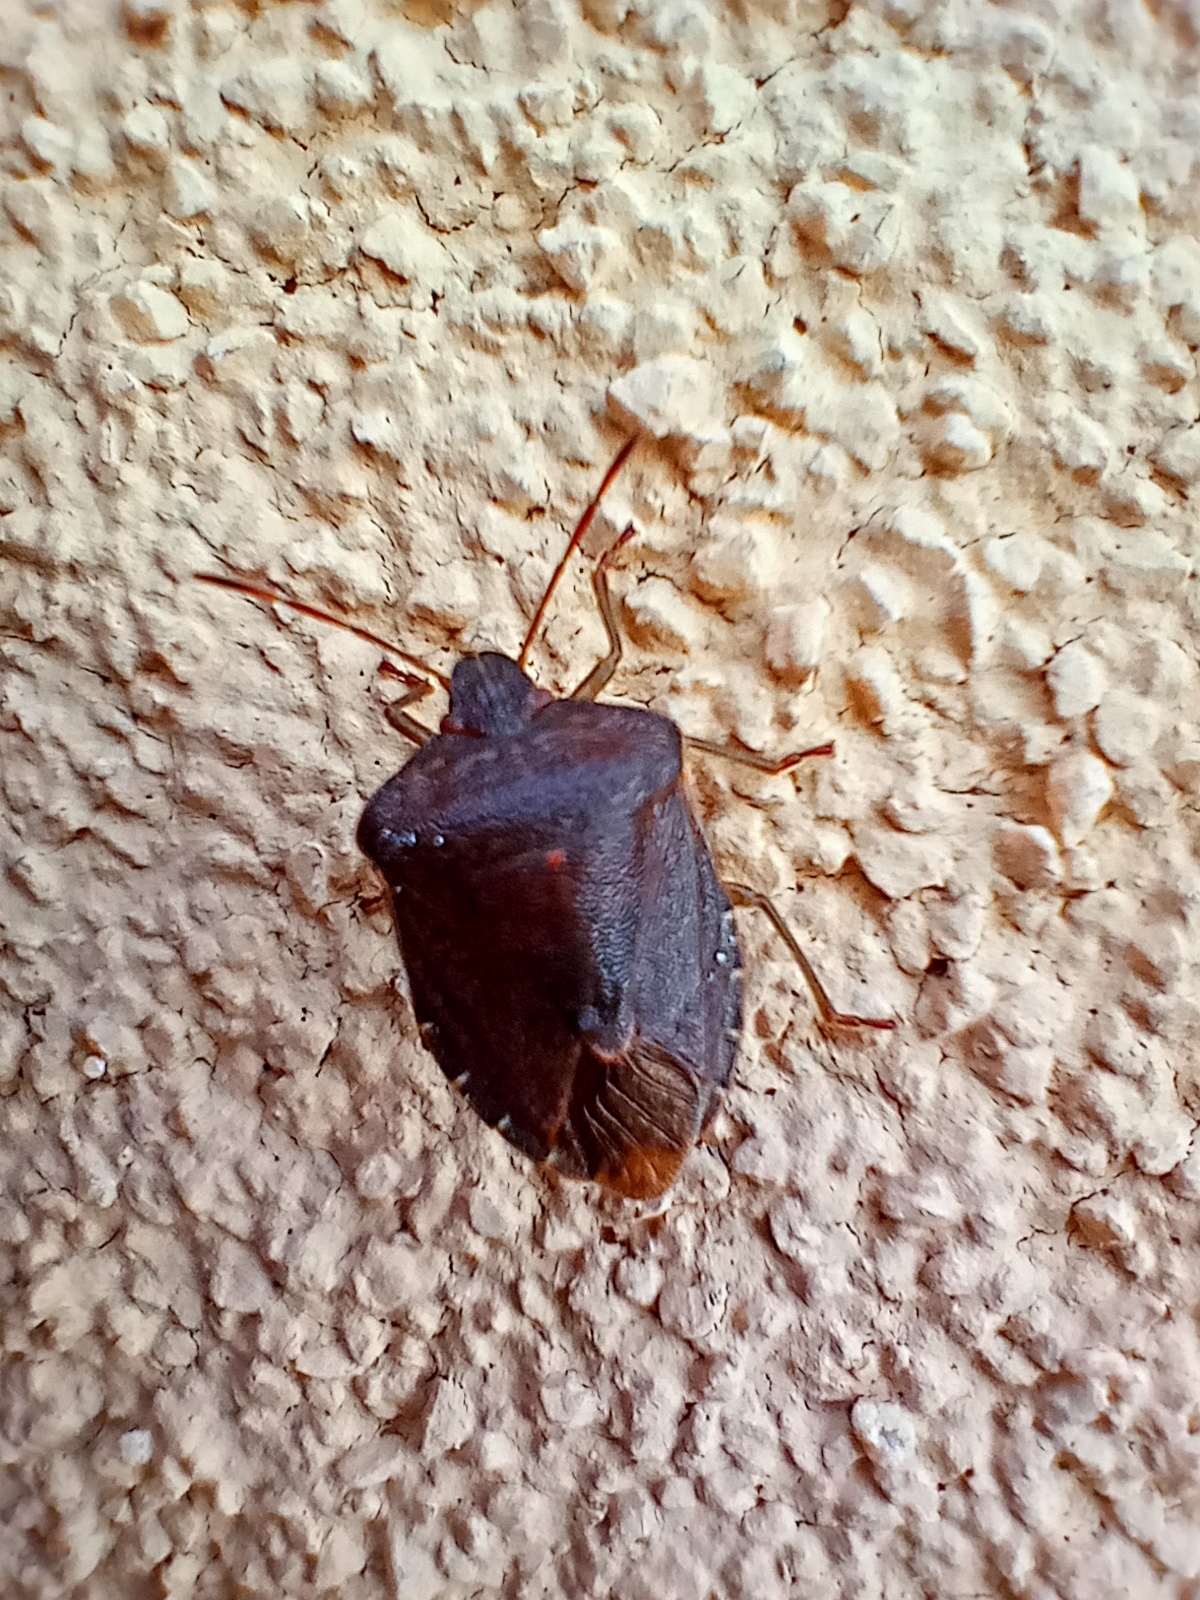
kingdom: Animalia
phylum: Arthropoda
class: Insecta
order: Hemiptera
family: Pentatomidae
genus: Palomena
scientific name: Palomena prasina
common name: Green shieldbug
